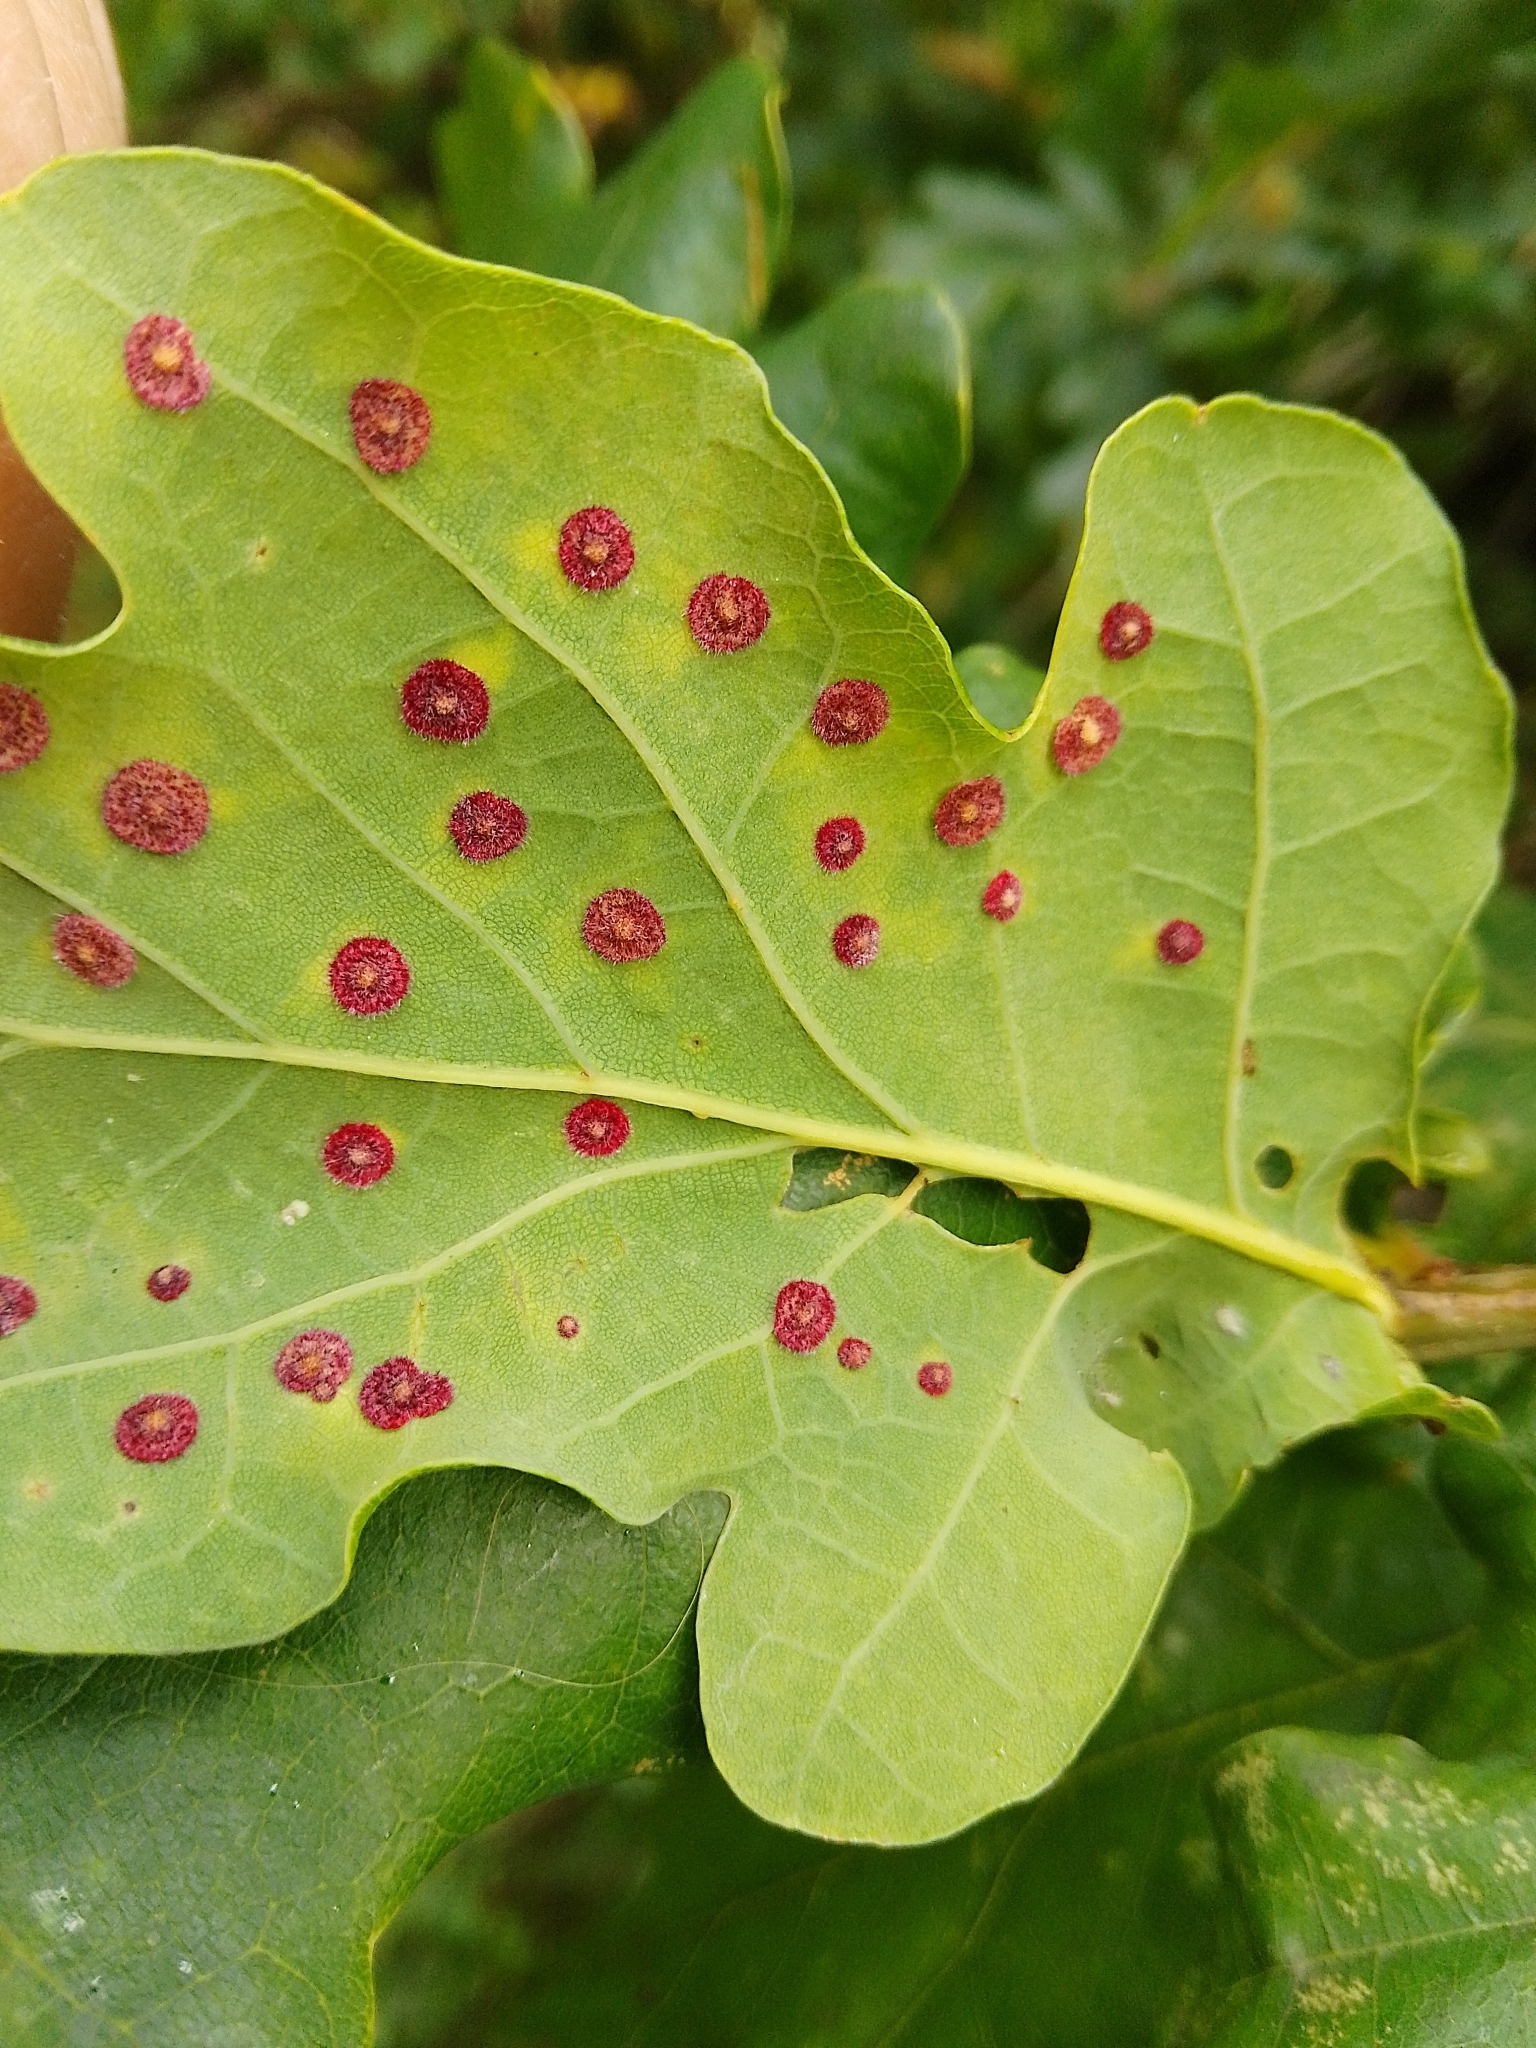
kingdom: Animalia
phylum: Arthropoda
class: Insecta
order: Hymenoptera
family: Cynipidae
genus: Neuroterus
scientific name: Neuroterus quercusbaccarum
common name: Common spangle gall
